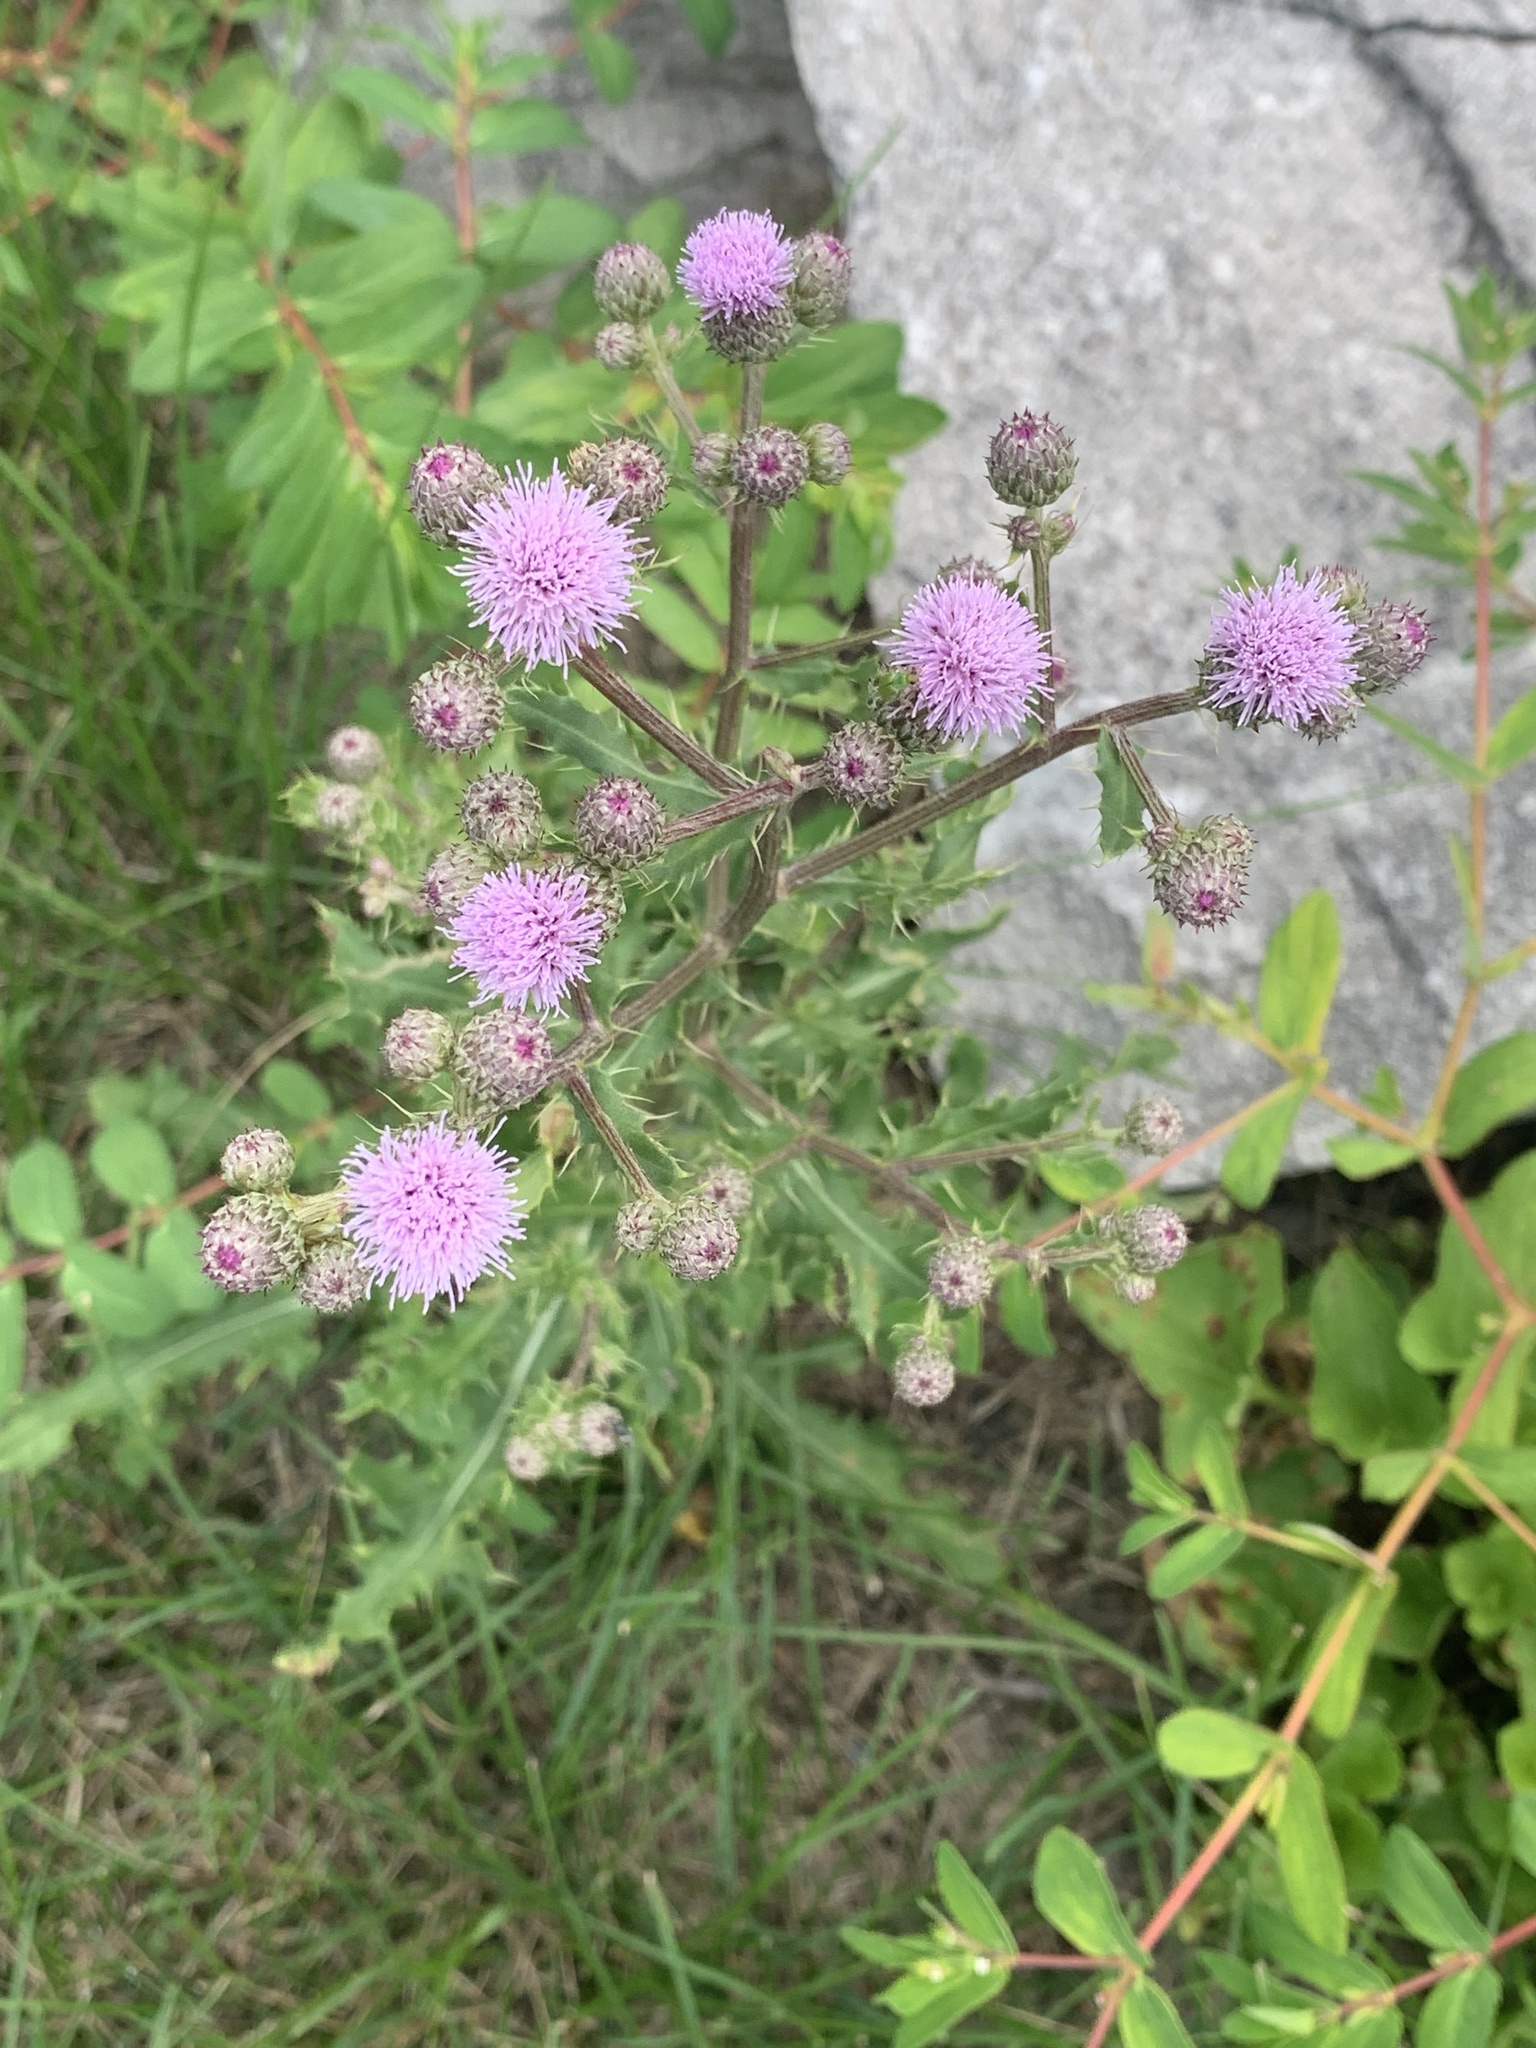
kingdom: Plantae
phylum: Tracheophyta
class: Magnoliopsida
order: Asterales
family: Asteraceae
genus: Cirsium
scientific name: Cirsium arvense
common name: Creeping thistle
